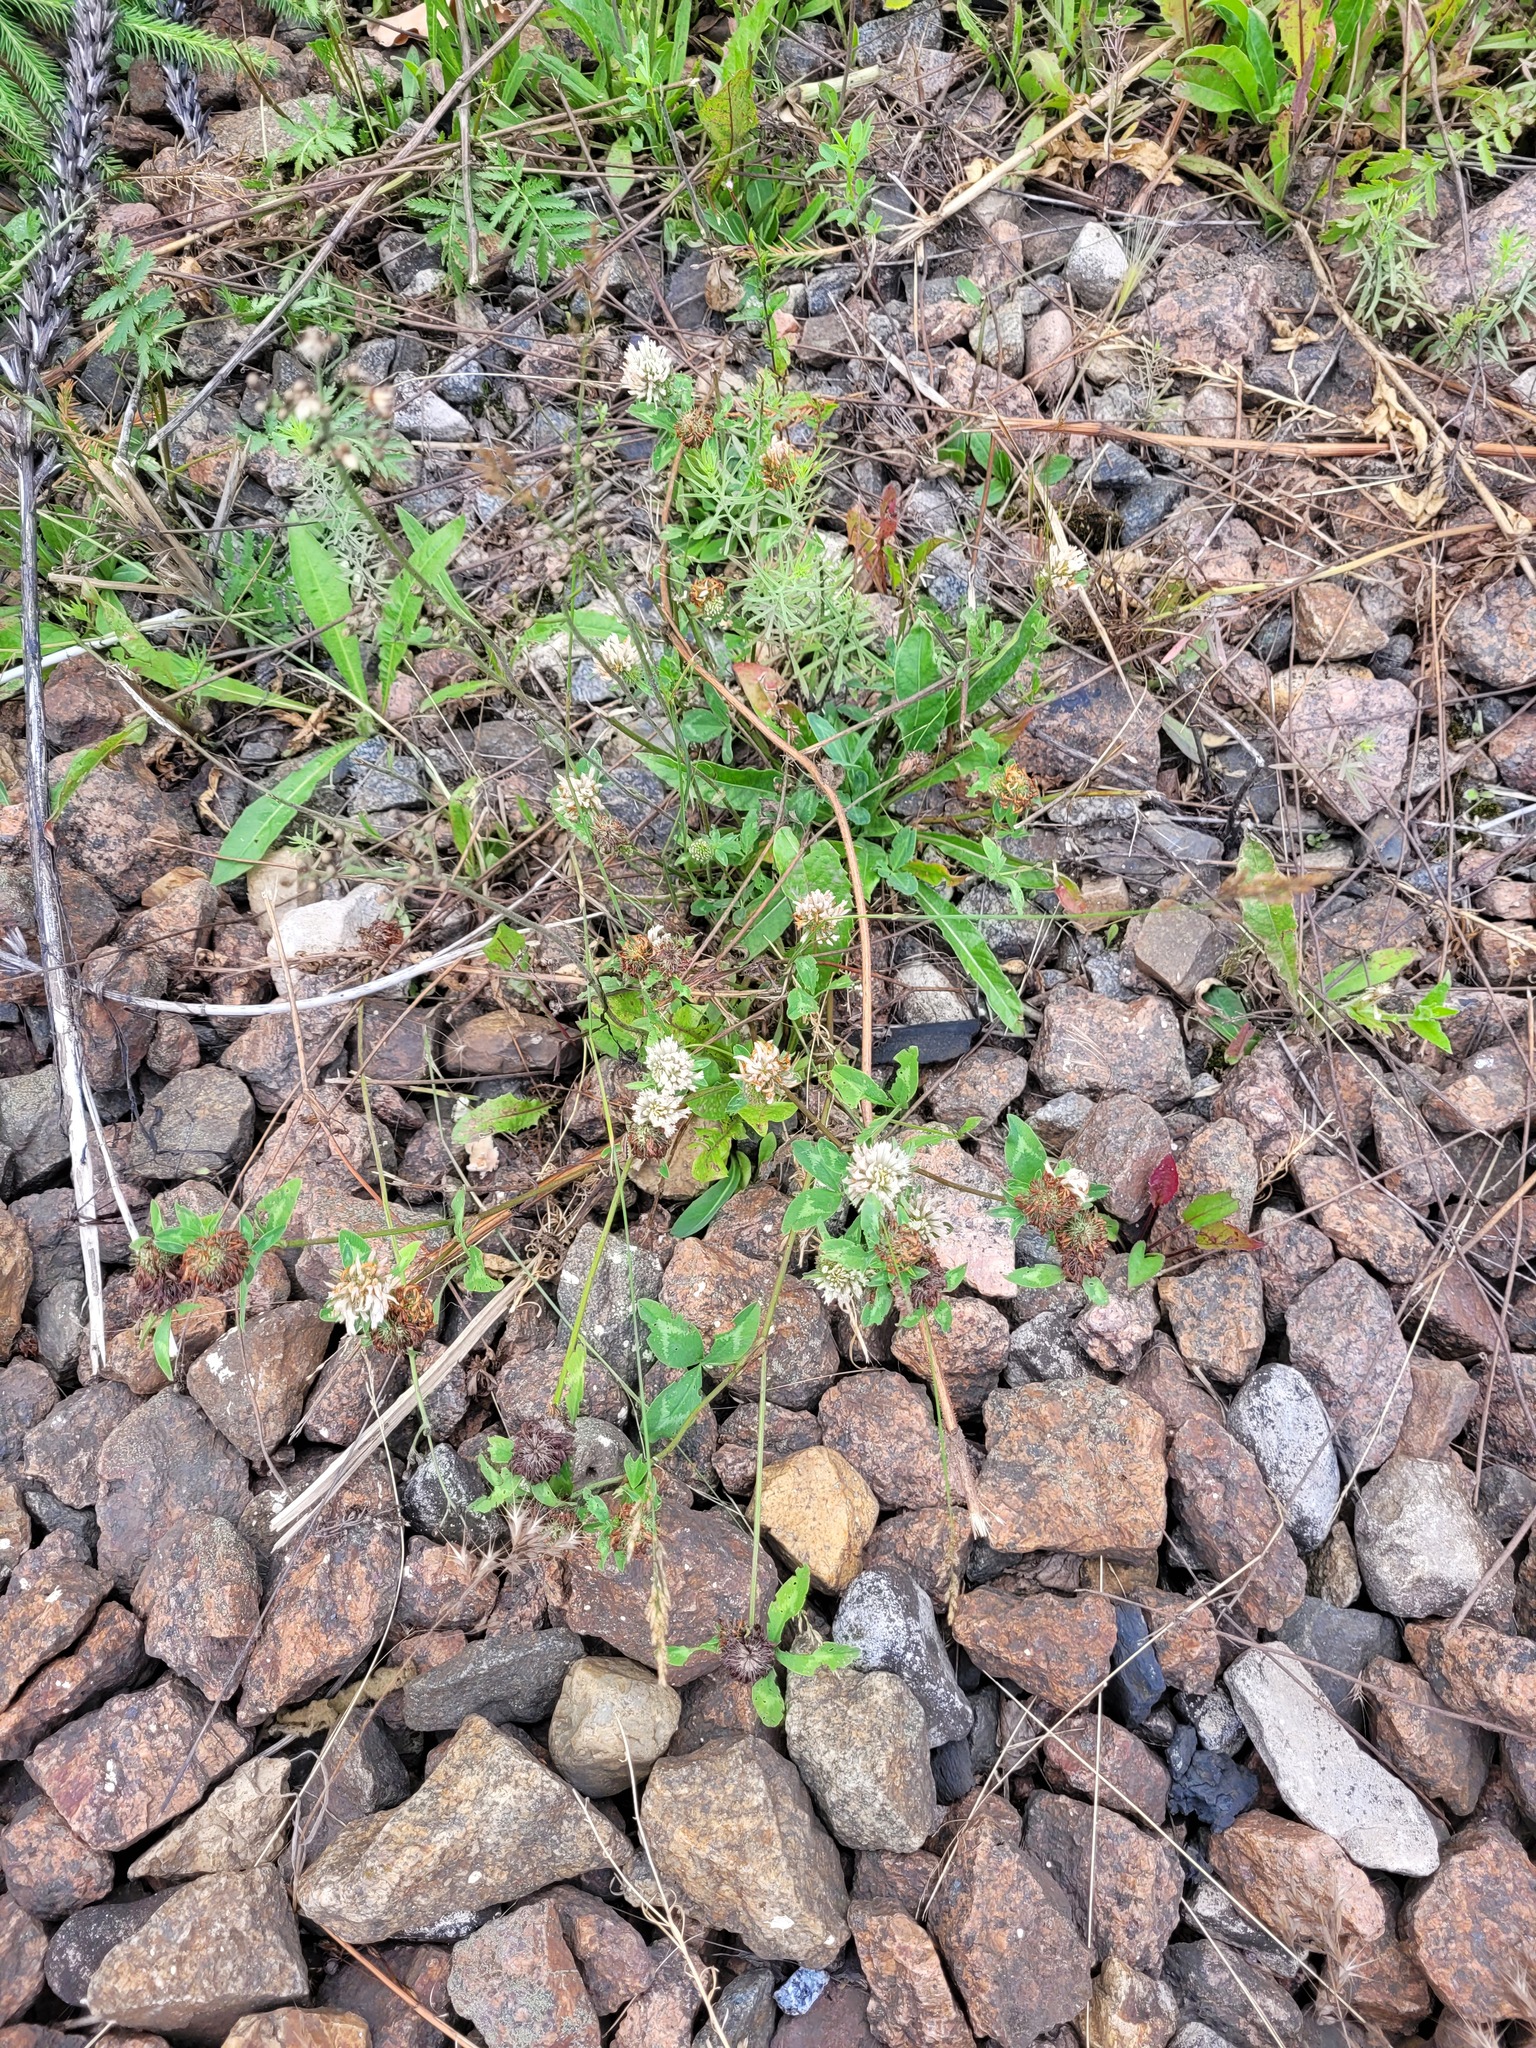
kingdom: Plantae
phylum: Tracheophyta
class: Magnoliopsida
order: Fabales
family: Fabaceae
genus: Trifolium
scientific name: Trifolium pratense
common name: Red clover
